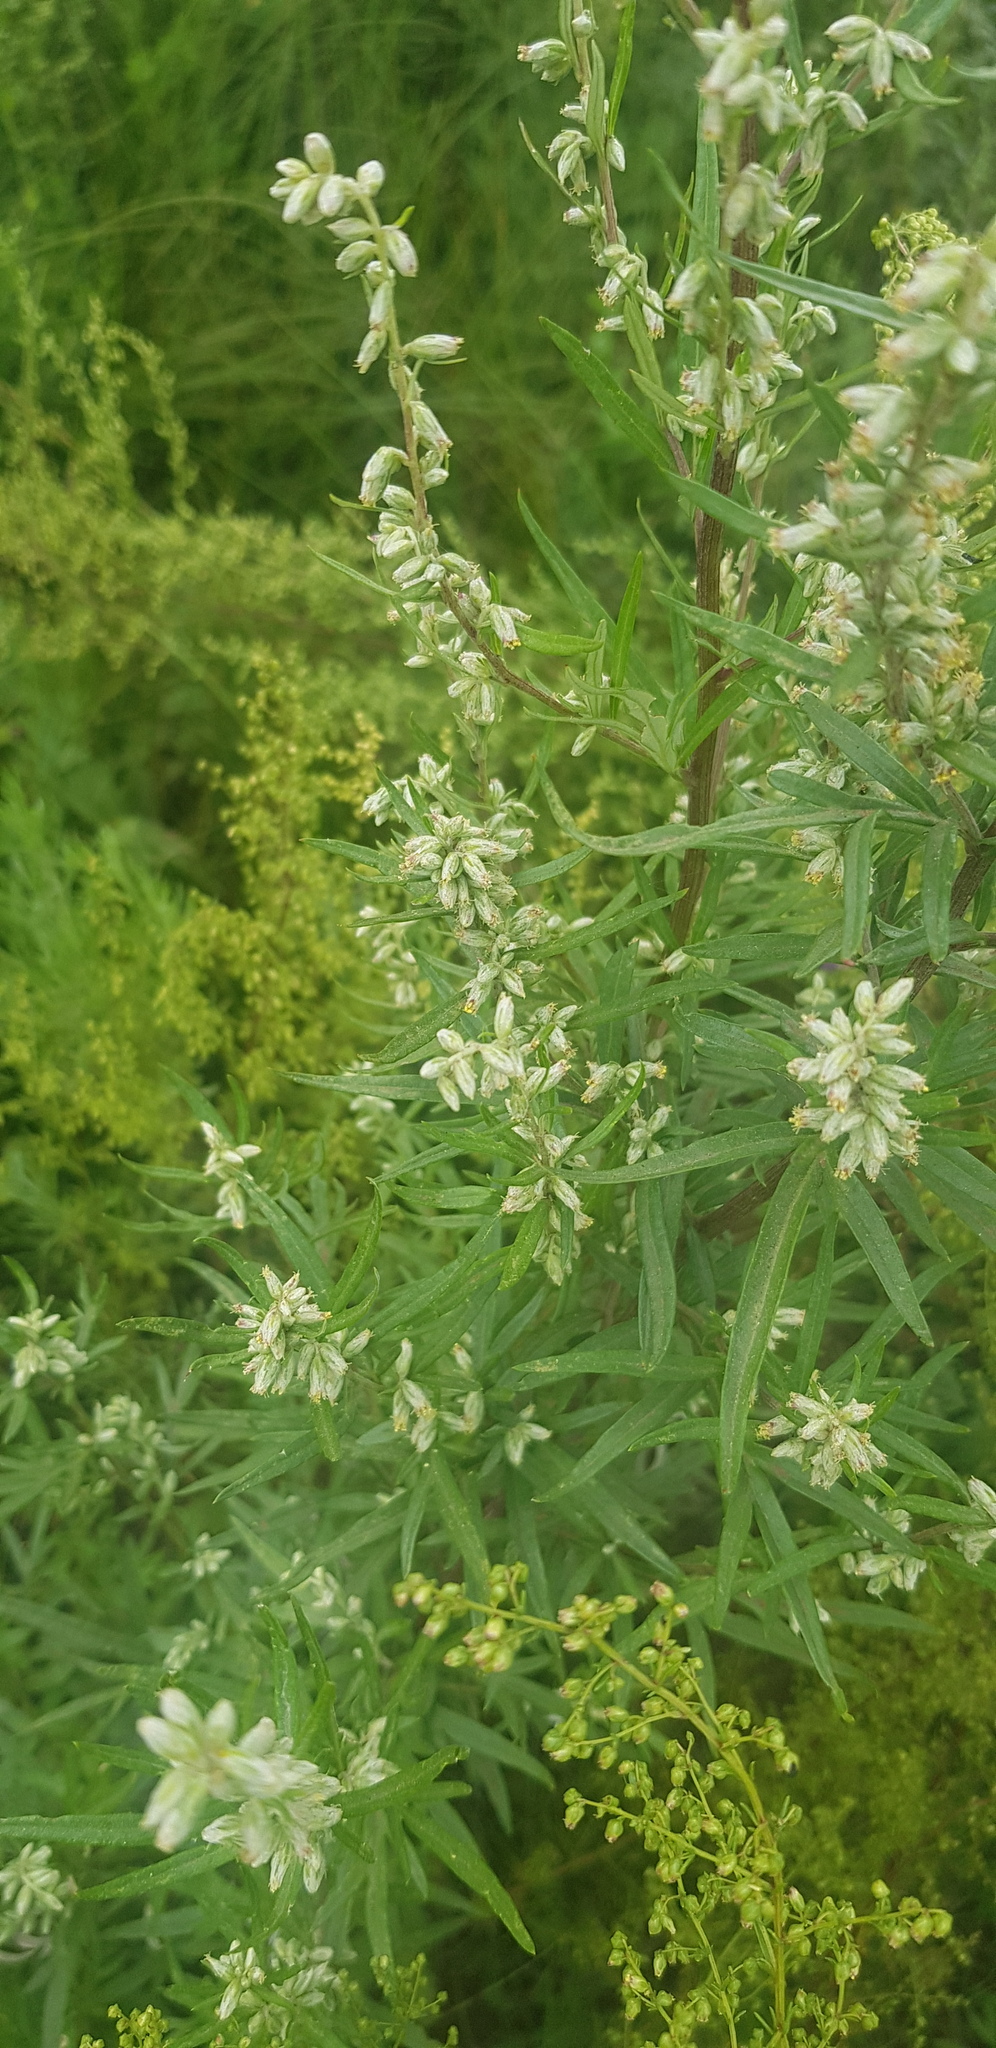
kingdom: Plantae
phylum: Tracheophyta
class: Magnoliopsida
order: Asterales
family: Asteraceae
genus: Artemisia
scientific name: Artemisia vulgaris
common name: Mugwort
